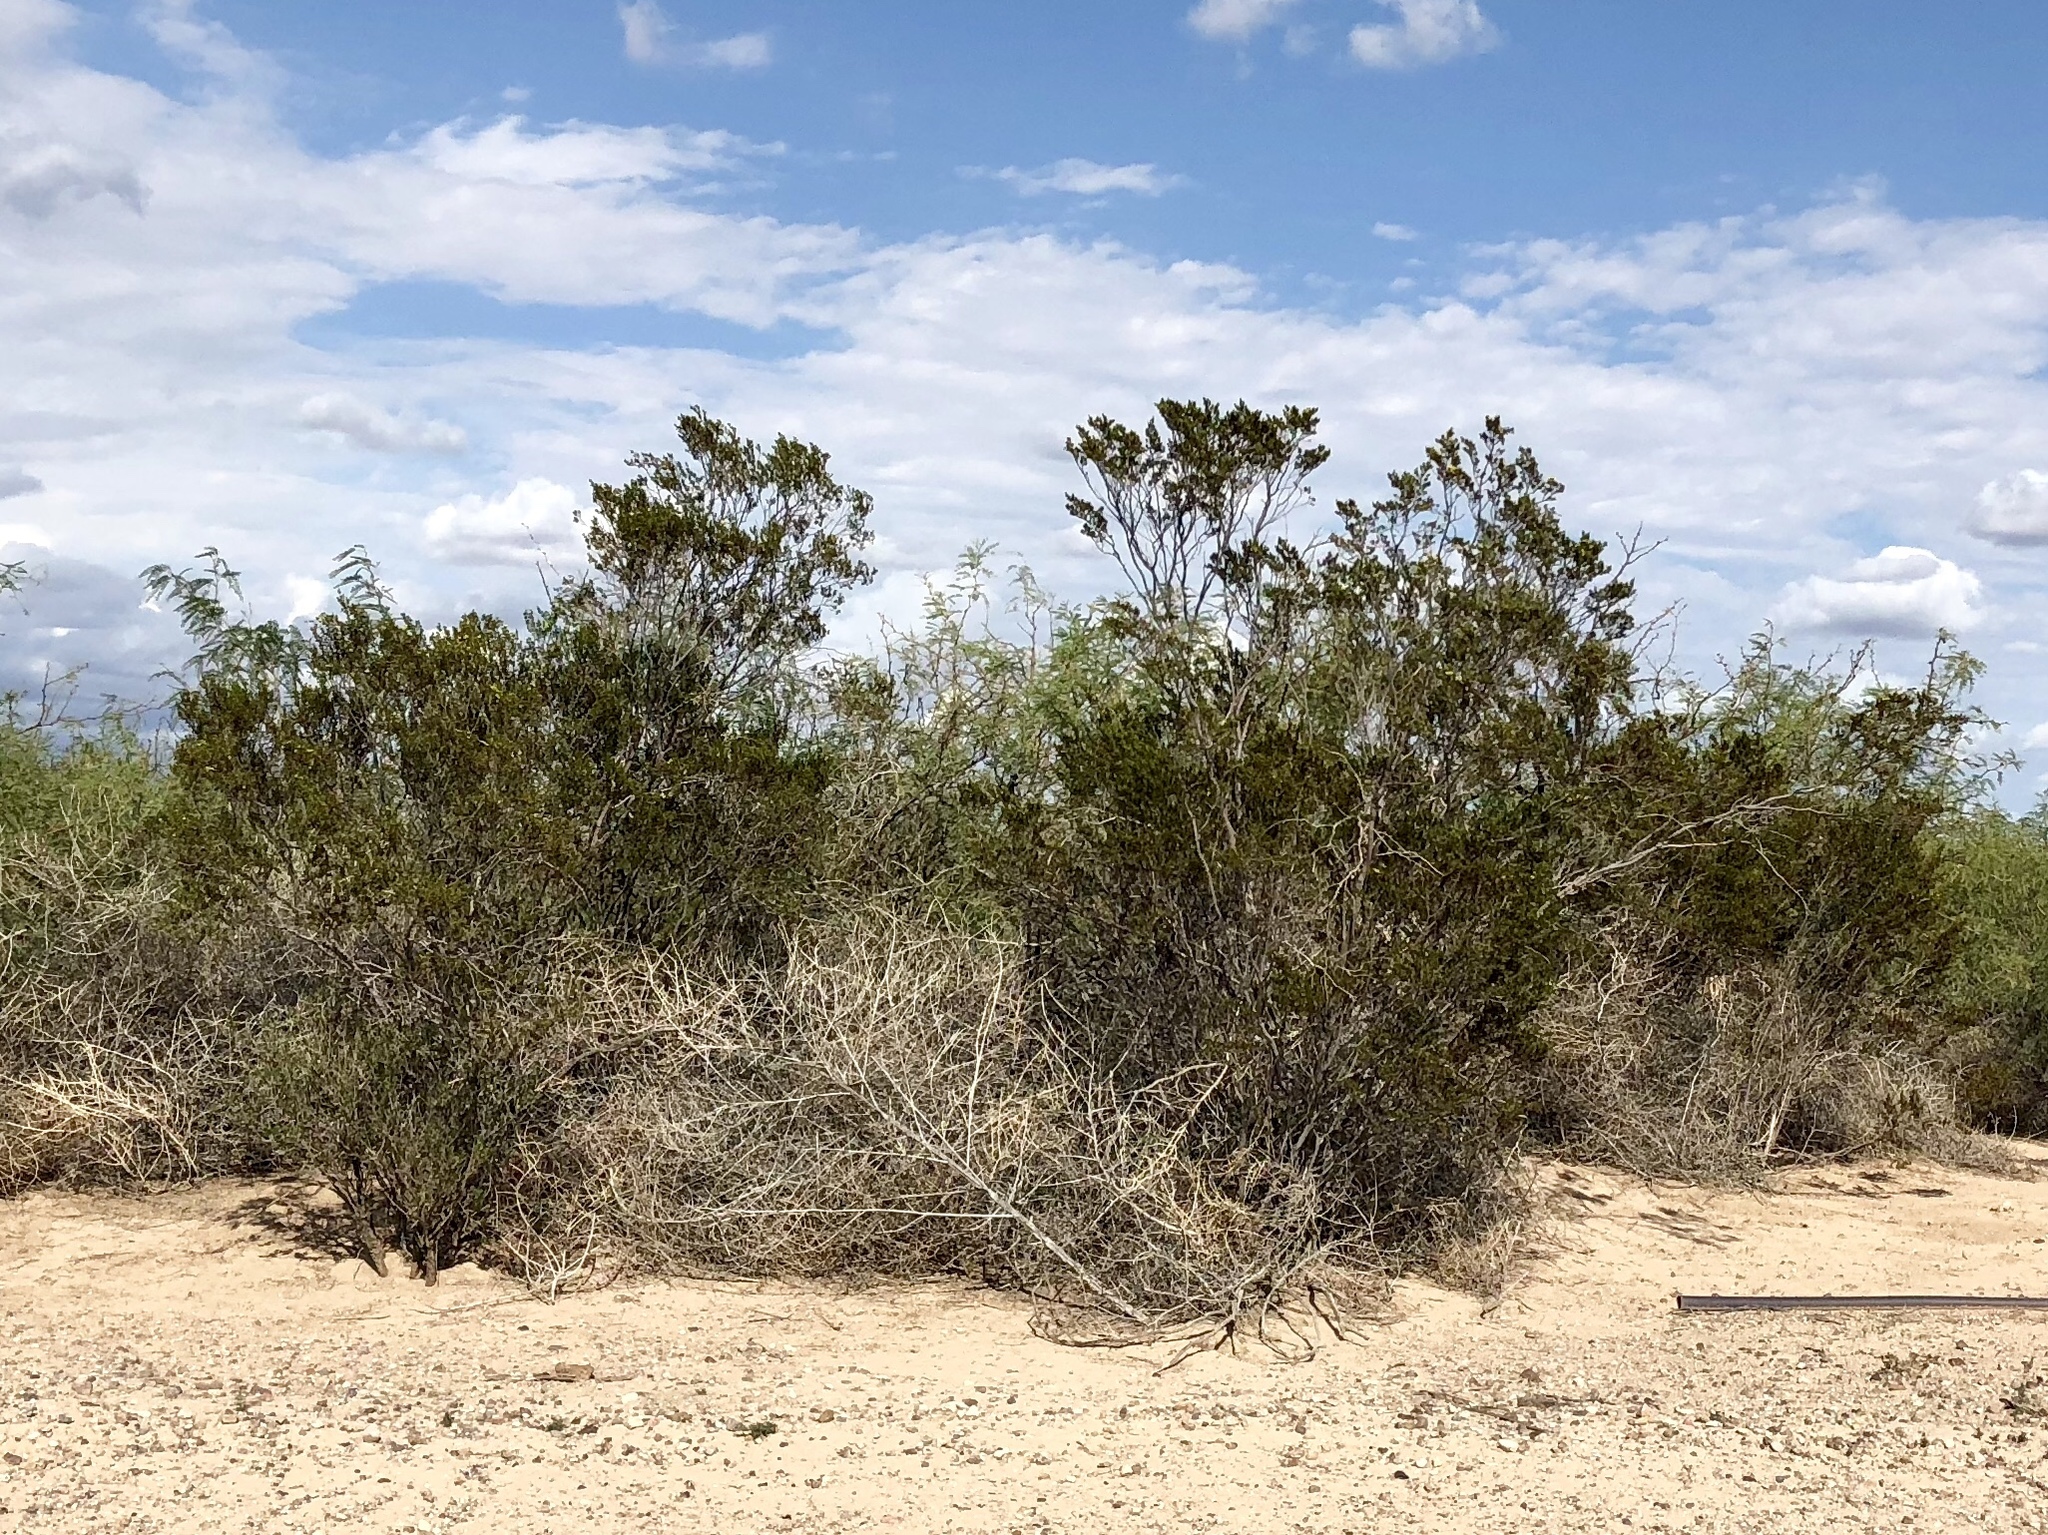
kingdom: Plantae
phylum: Tracheophyta
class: Magnoliopsida
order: Zygophyllales
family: Zygophyllaceae
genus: Larrea
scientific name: Larrea tridentata
